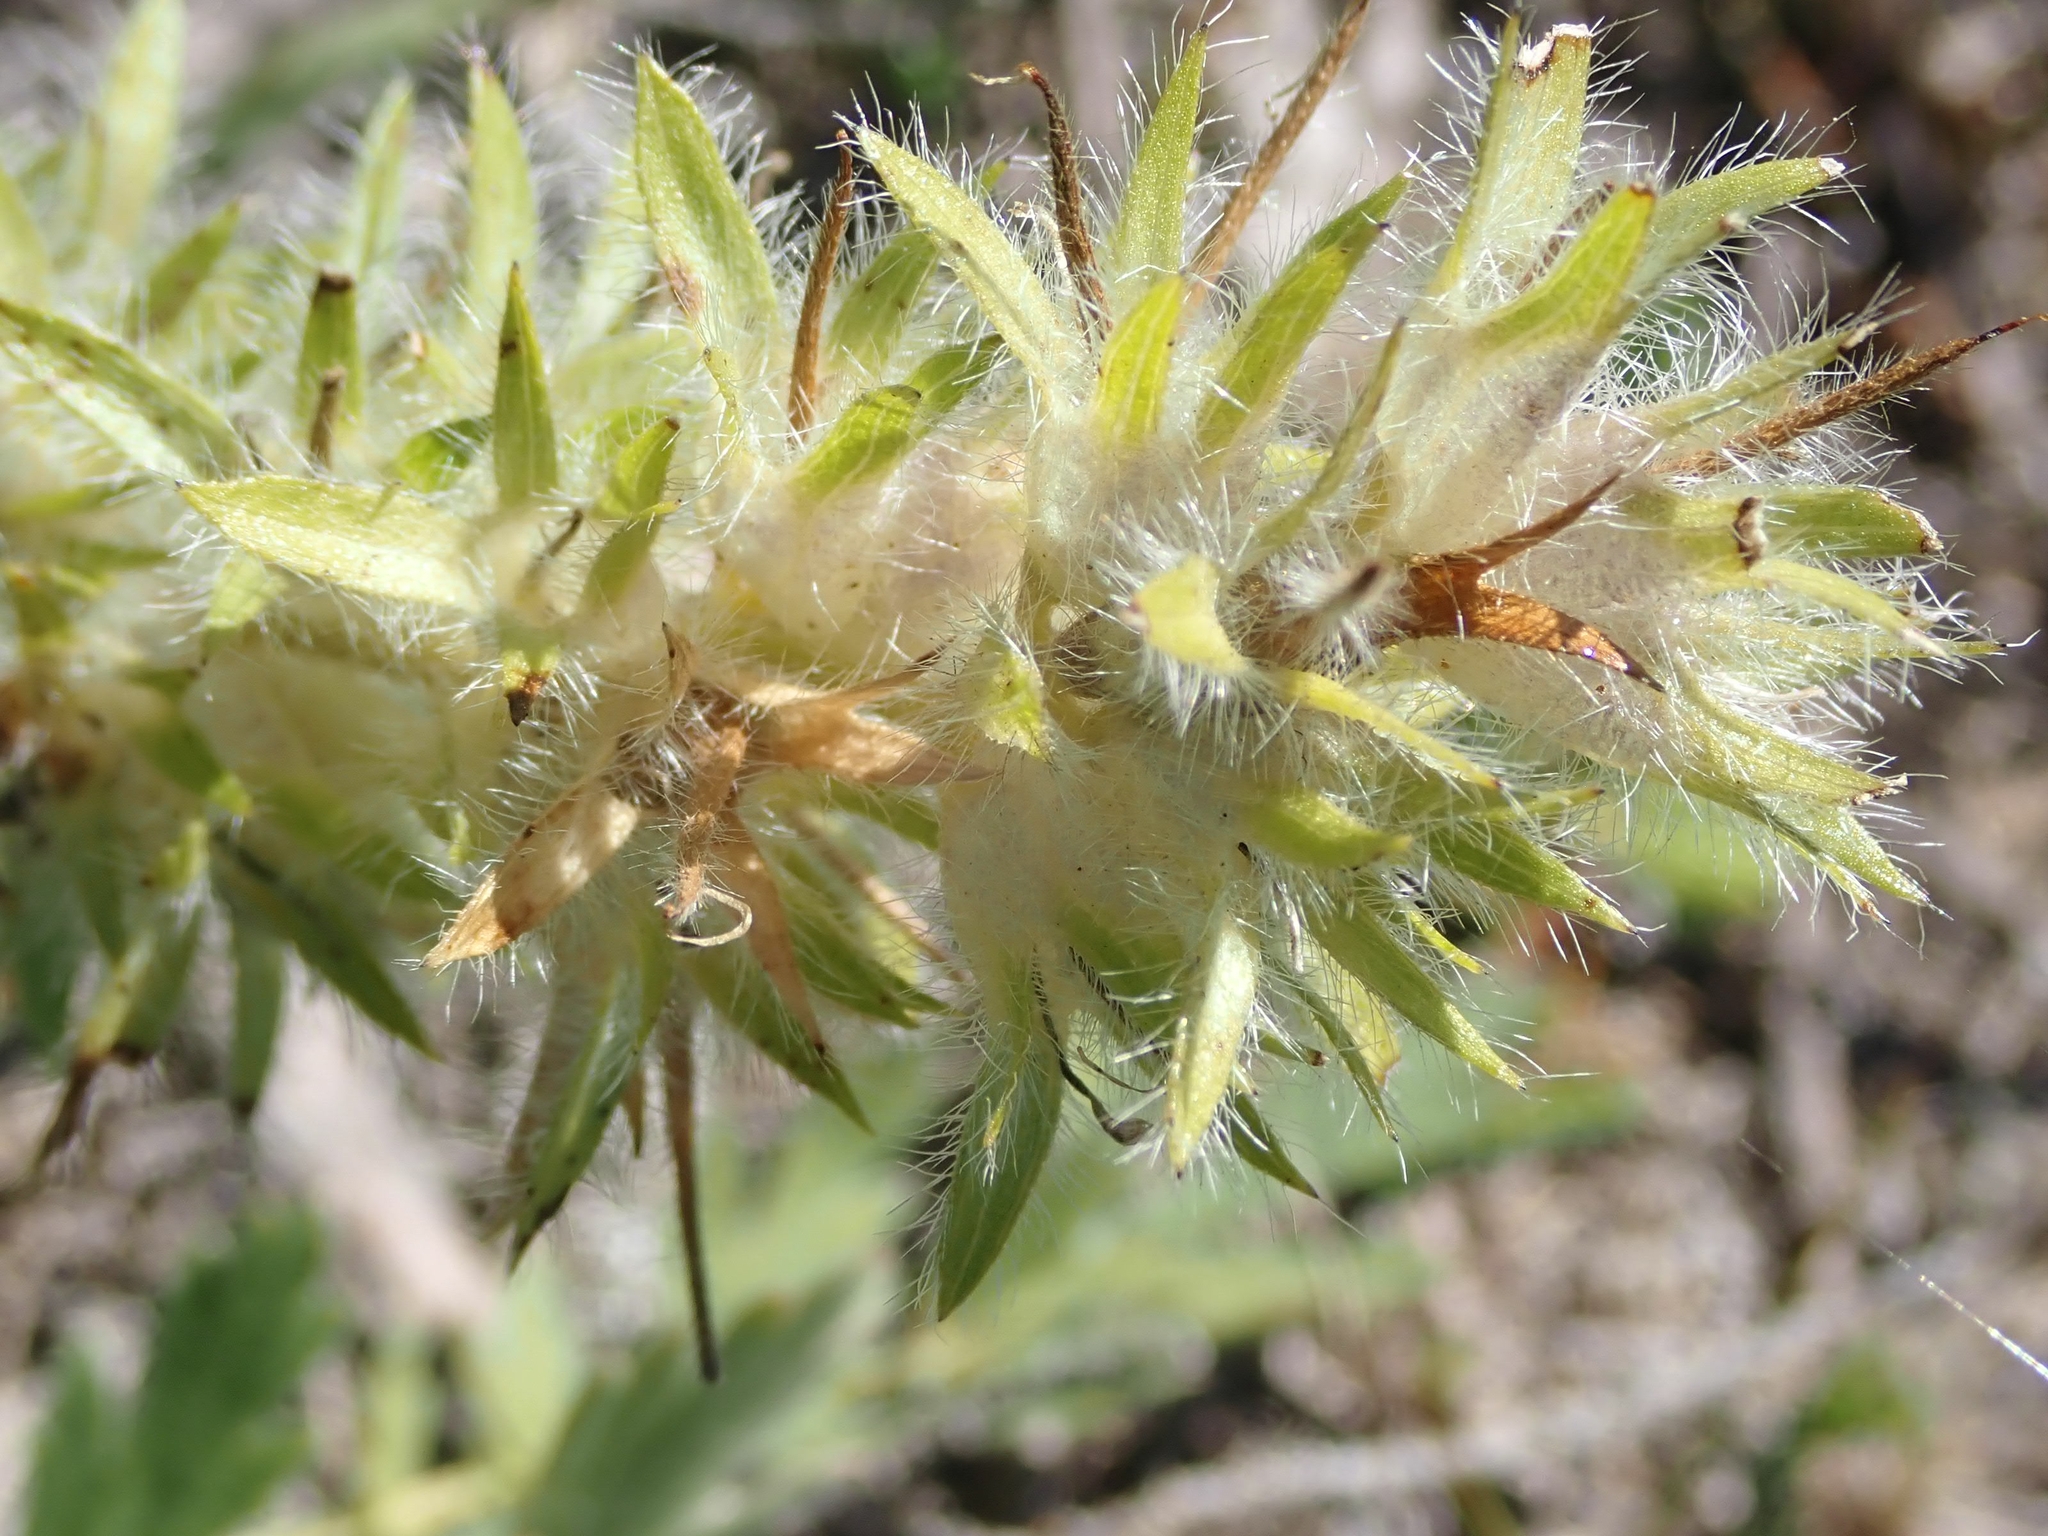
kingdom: Plantae
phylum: Tracheophyta
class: Magnoliopsida
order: Fabales
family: Fabaceae
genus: Pediomelum
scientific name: Pediomelum esculentum
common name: Indian-turnip
